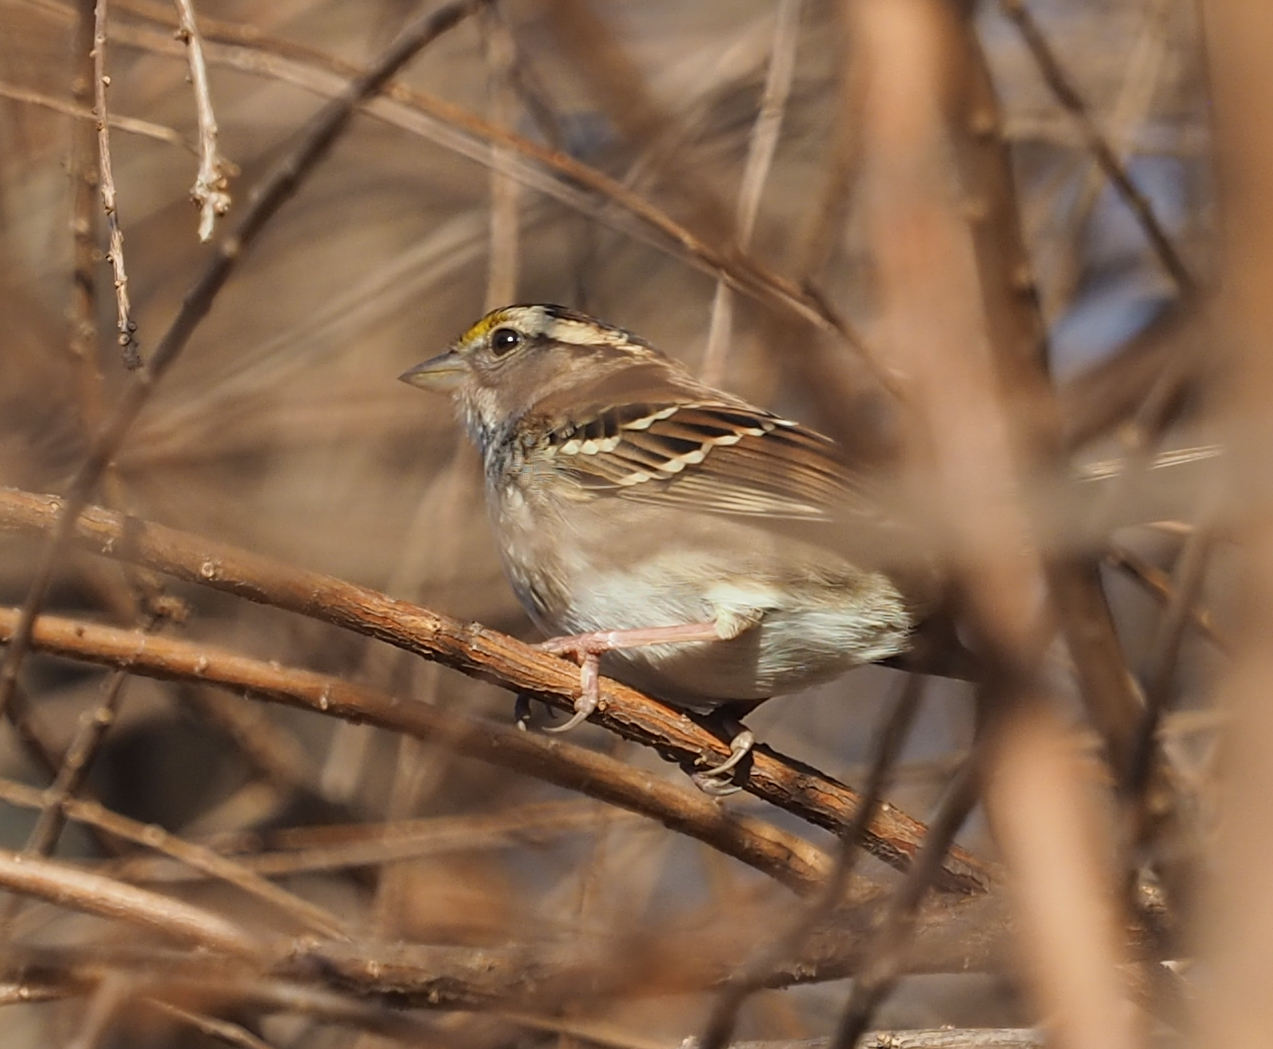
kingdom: Animalia
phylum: Chordata
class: Aves
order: Passeriformes
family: Passerellidae
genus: Zonotrichia
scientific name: Zonotrichia albicollis
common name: White-throated sparrow
